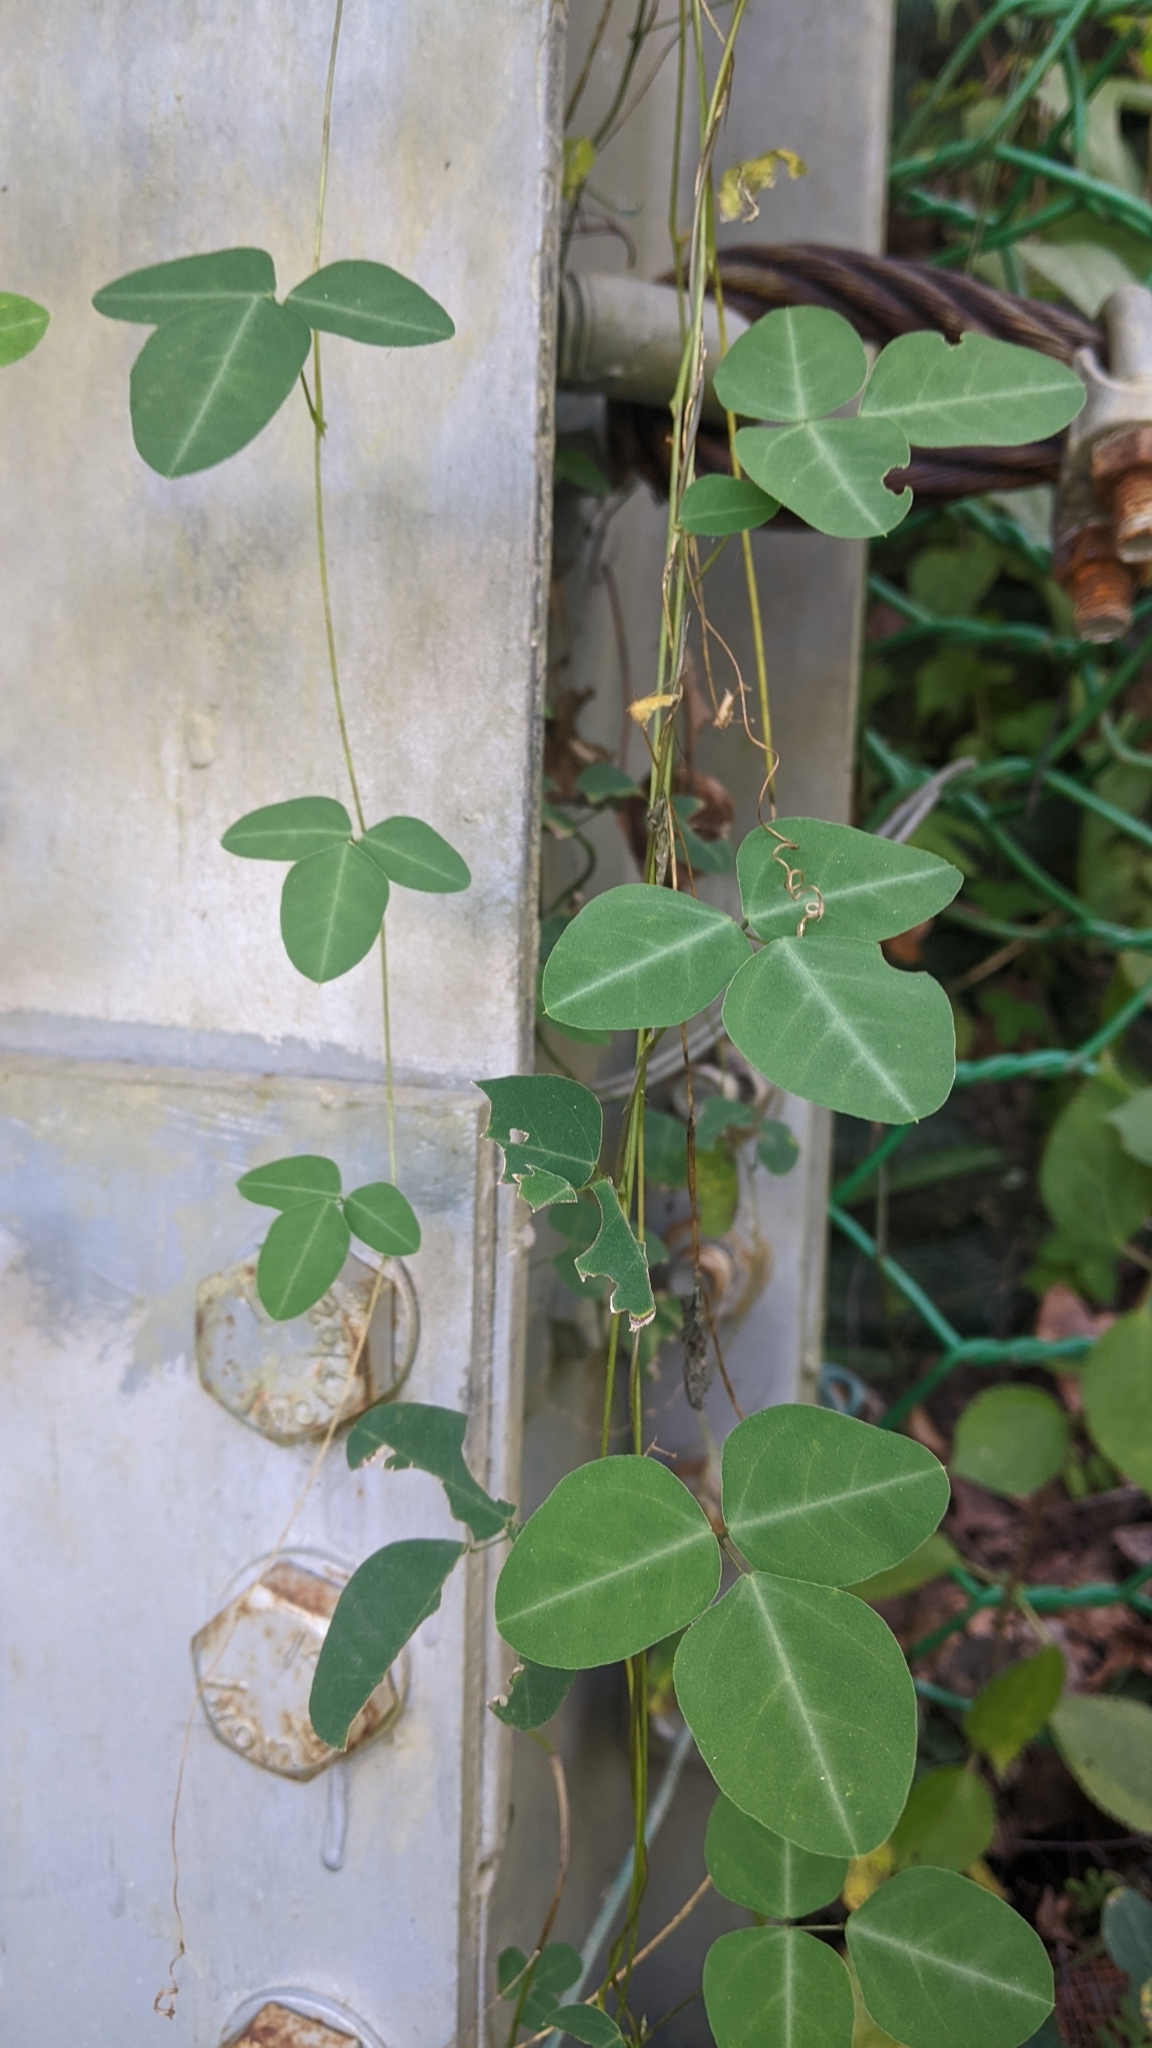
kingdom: Plantae
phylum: Tracheophyta
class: Magnoliopsida
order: Fabales
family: Fabaceae
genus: Dumasia
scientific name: Dumasia villosa
